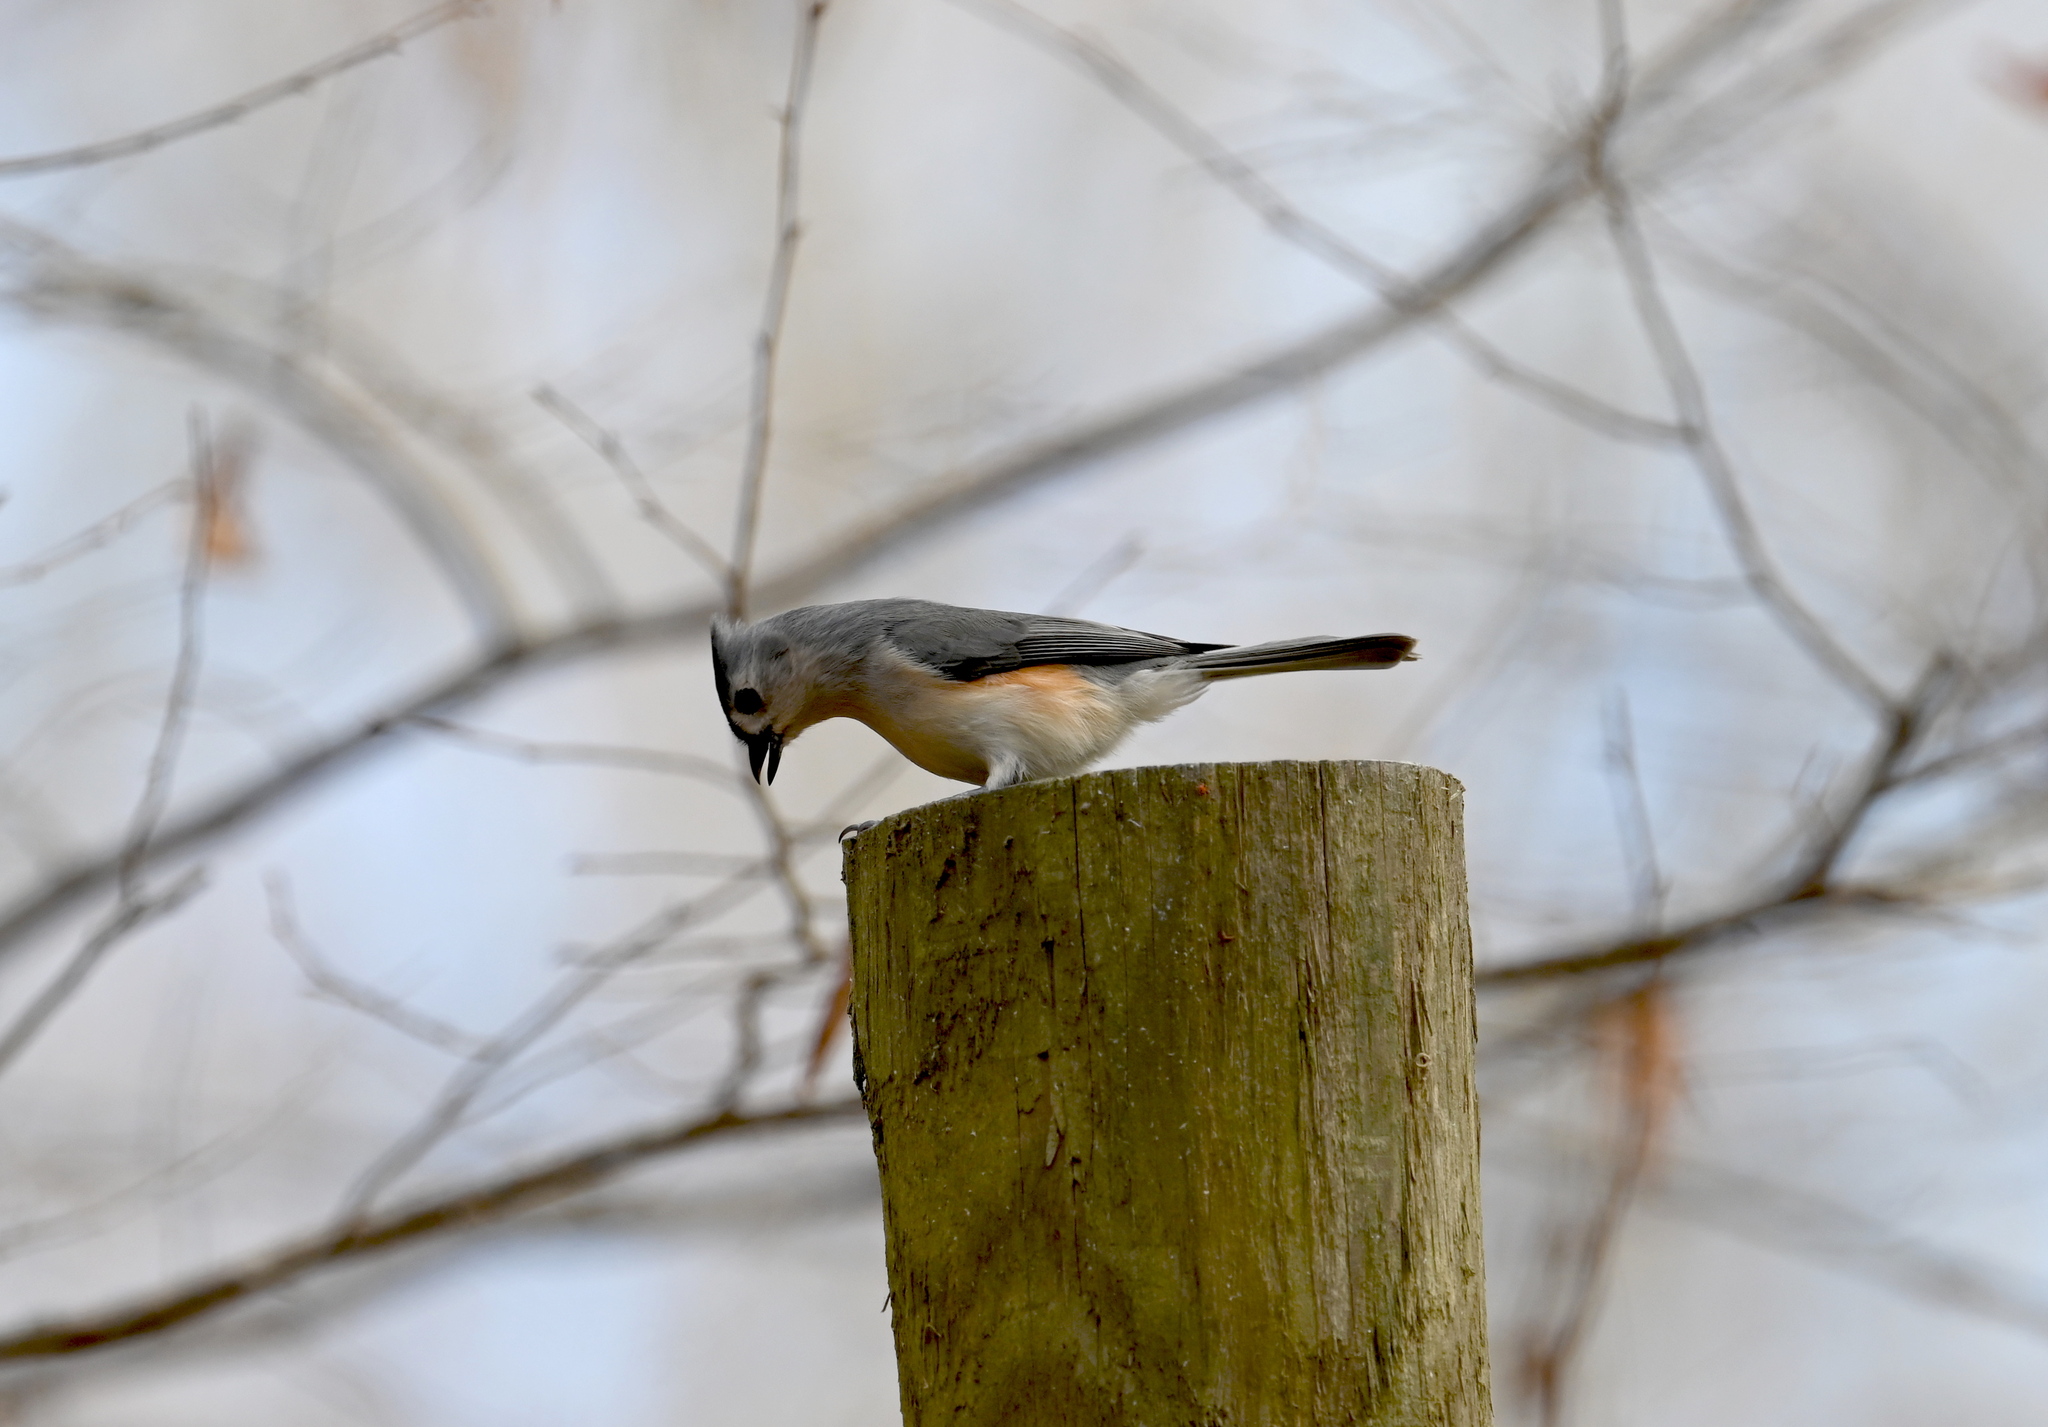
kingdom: Animalia
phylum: Chordata
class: Aves
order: Passeriformes
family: Paridae
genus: Baeolophus
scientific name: Baeolophus bicolor
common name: Tufted titmouse
